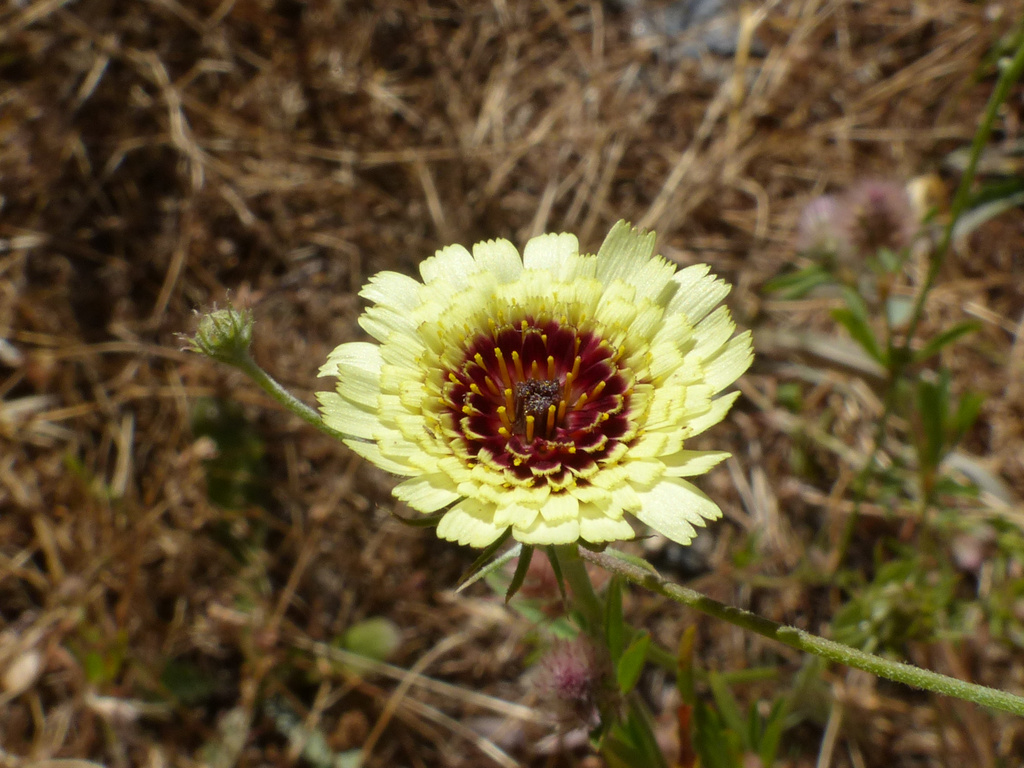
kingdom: Plantae
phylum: Tracheophyta
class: Magnoliopsida
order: Asterales
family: Asteraceae
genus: Tolpis
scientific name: Tolpis barbata
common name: Yellow hawkweed
